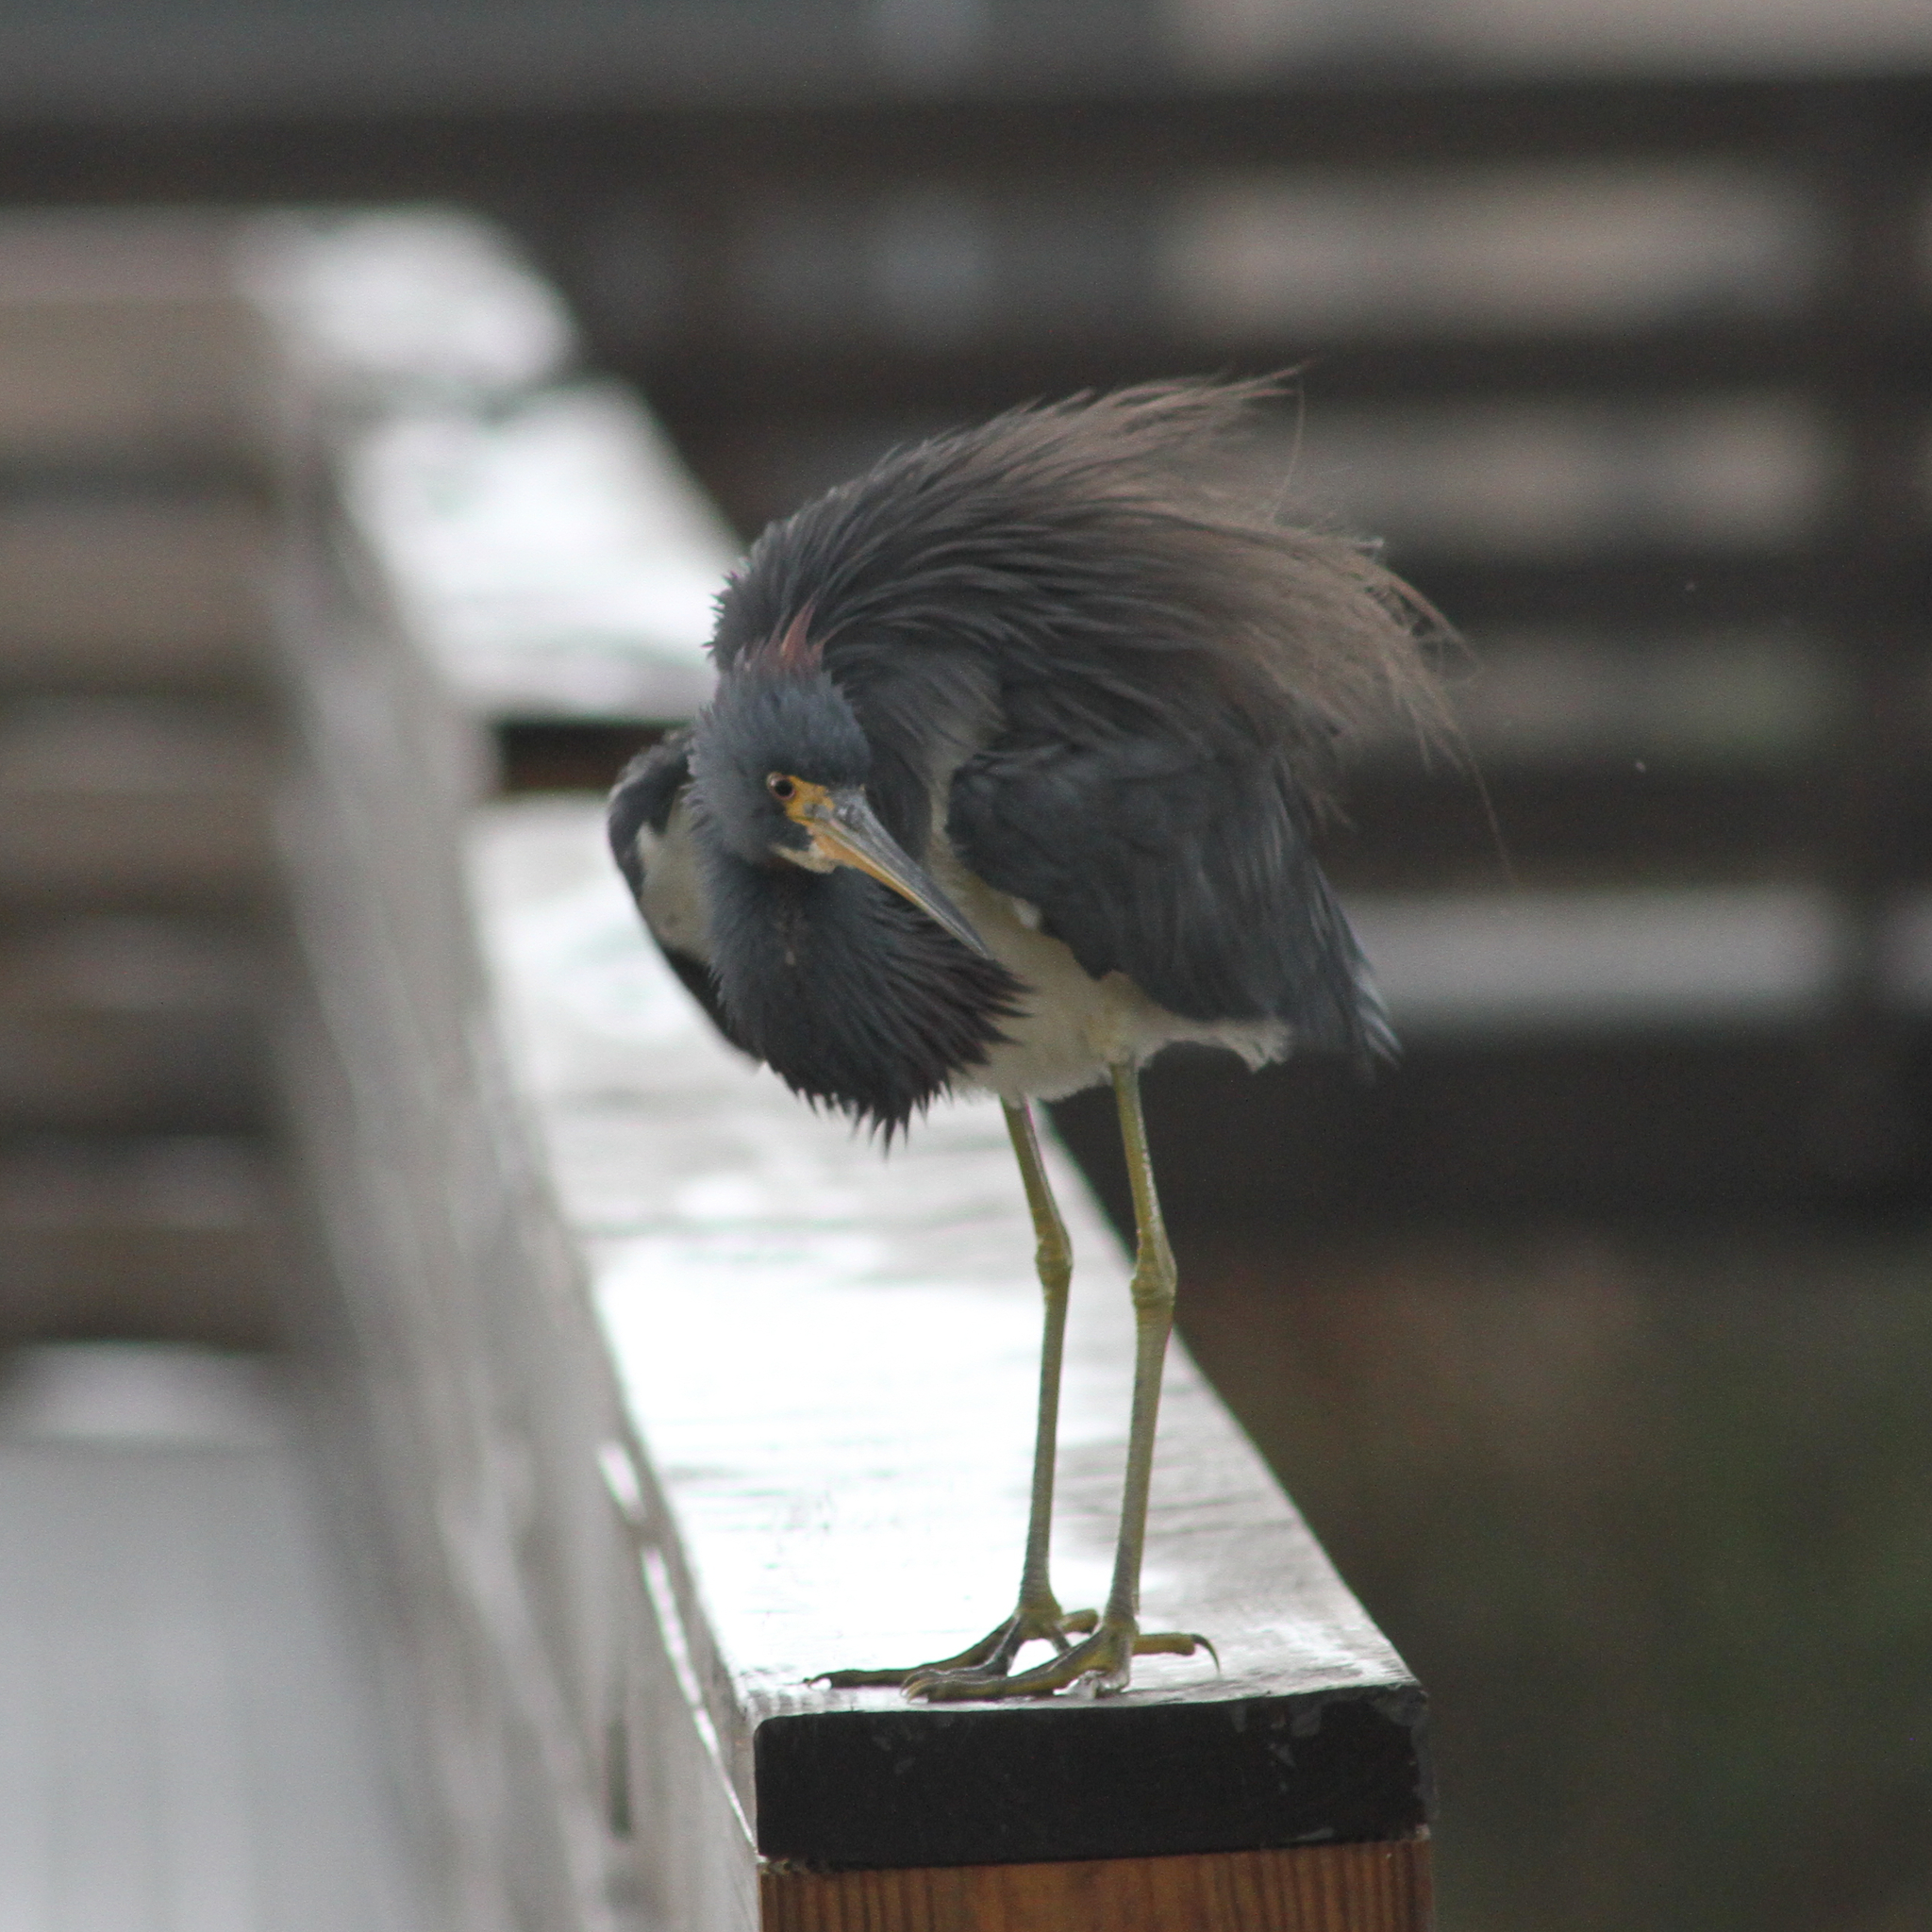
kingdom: Animalia
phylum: Chordata
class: Aves
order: Pelecaniformes
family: Ardeidae
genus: Egretta
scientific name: Egretta tricolor
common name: Tricolored heron
